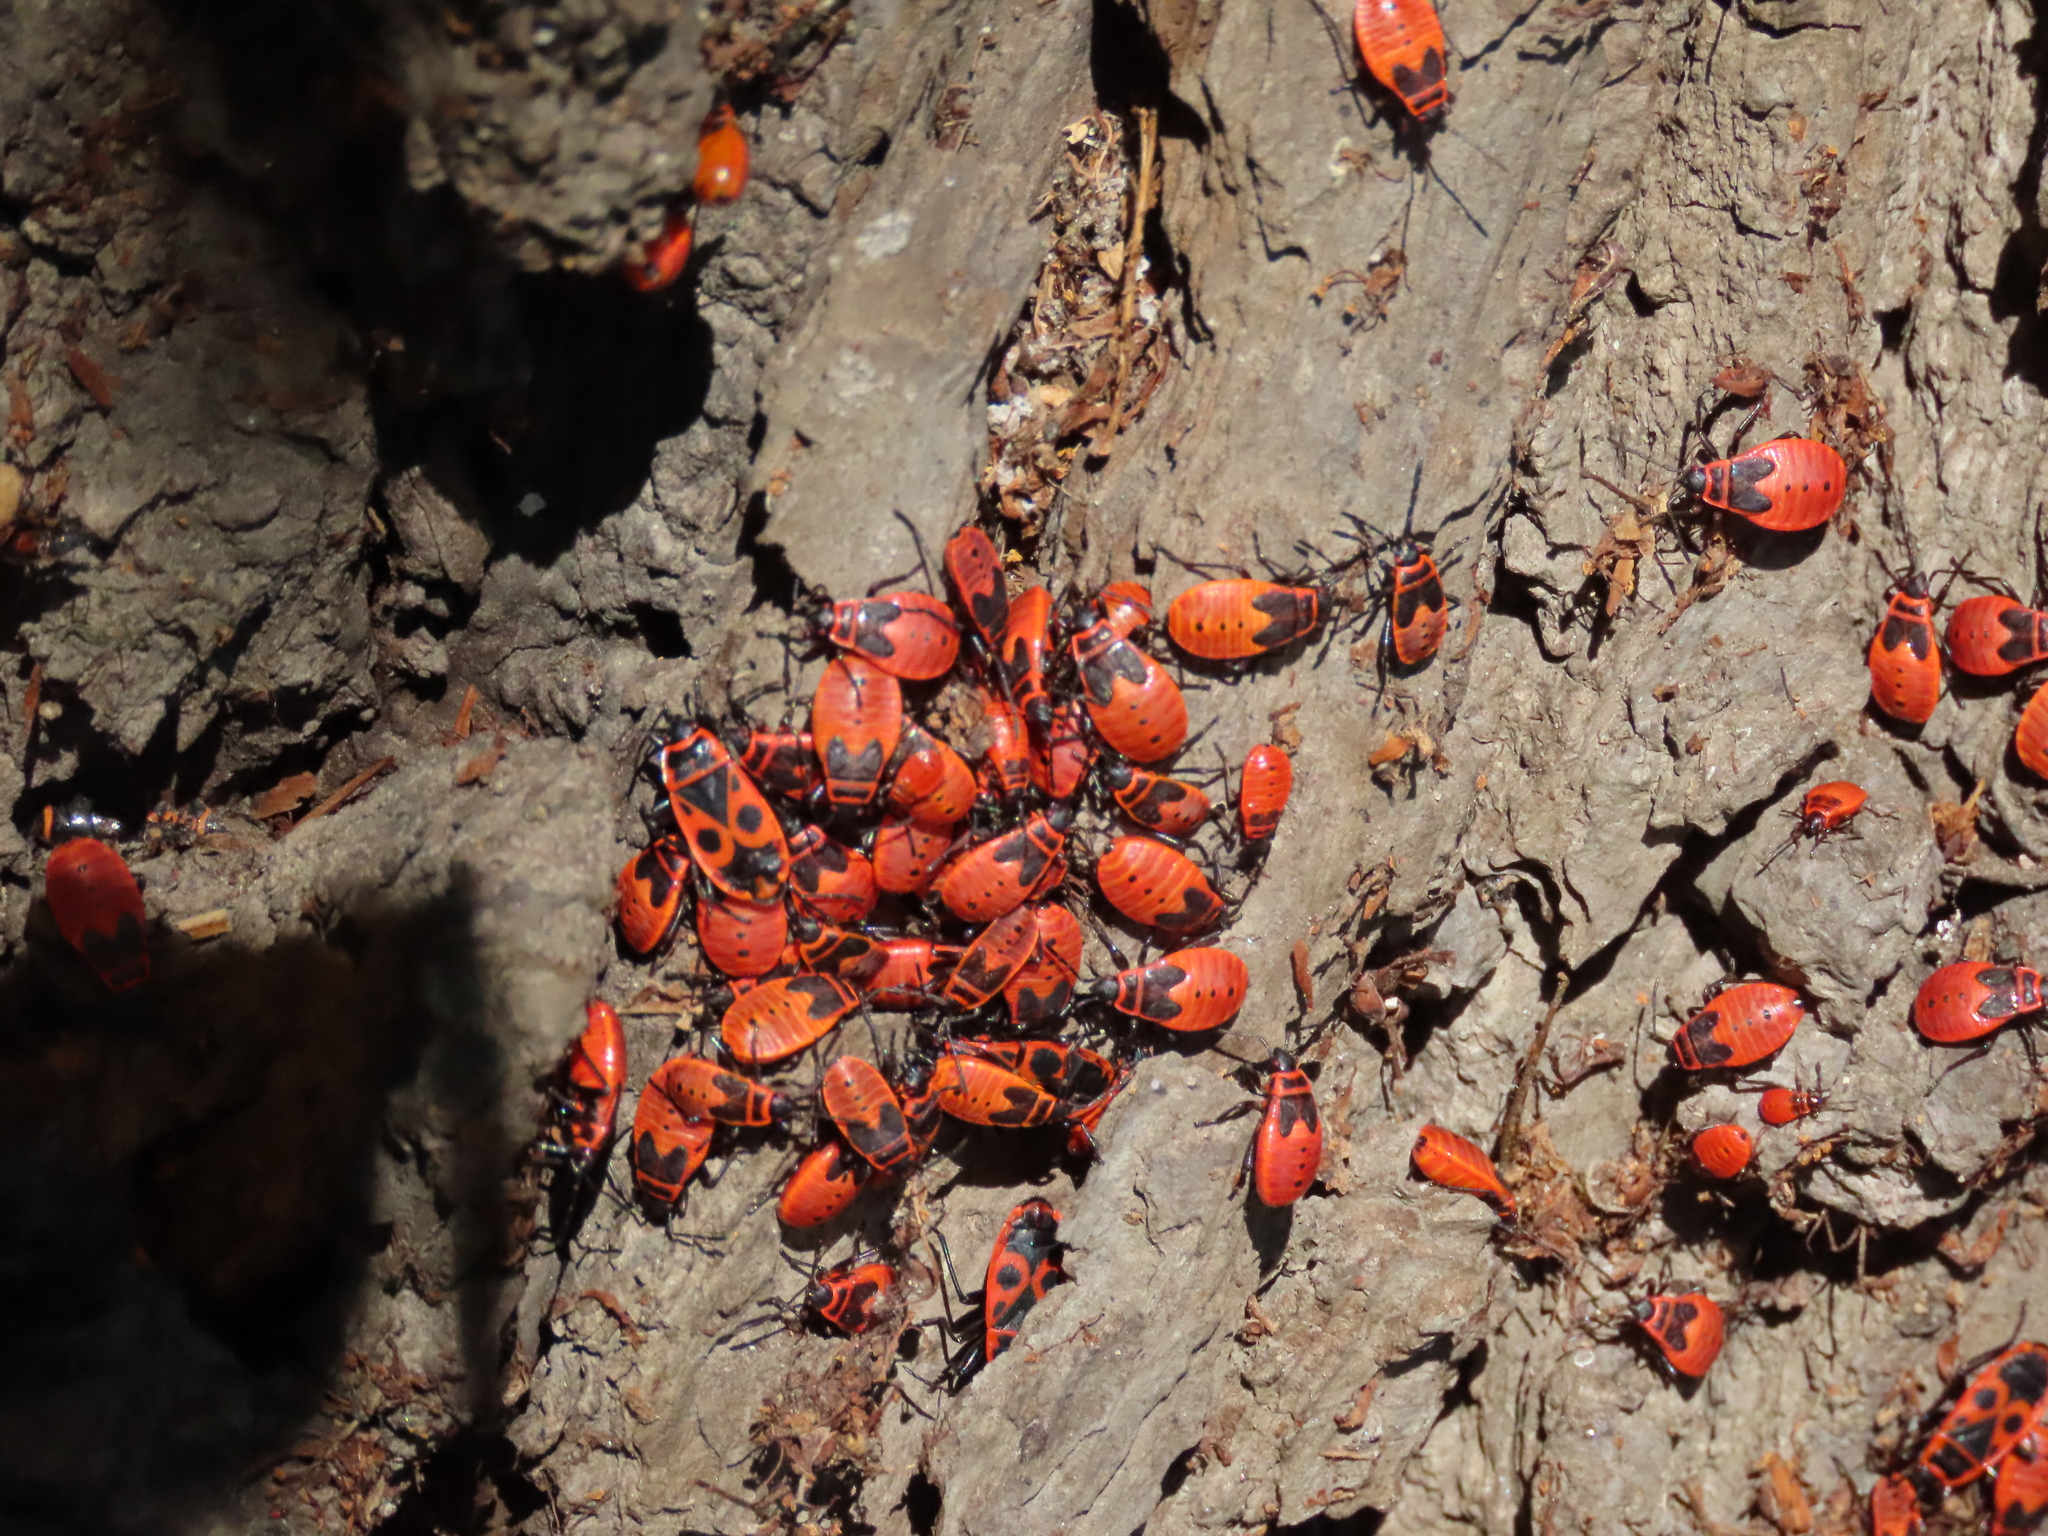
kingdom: Animalia
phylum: Arthropoda
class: Insecta
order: Hemiptera
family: Pyrrhocoridae
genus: Pyrrhocoris
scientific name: Pyrrhocoris apterus
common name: Firebug
